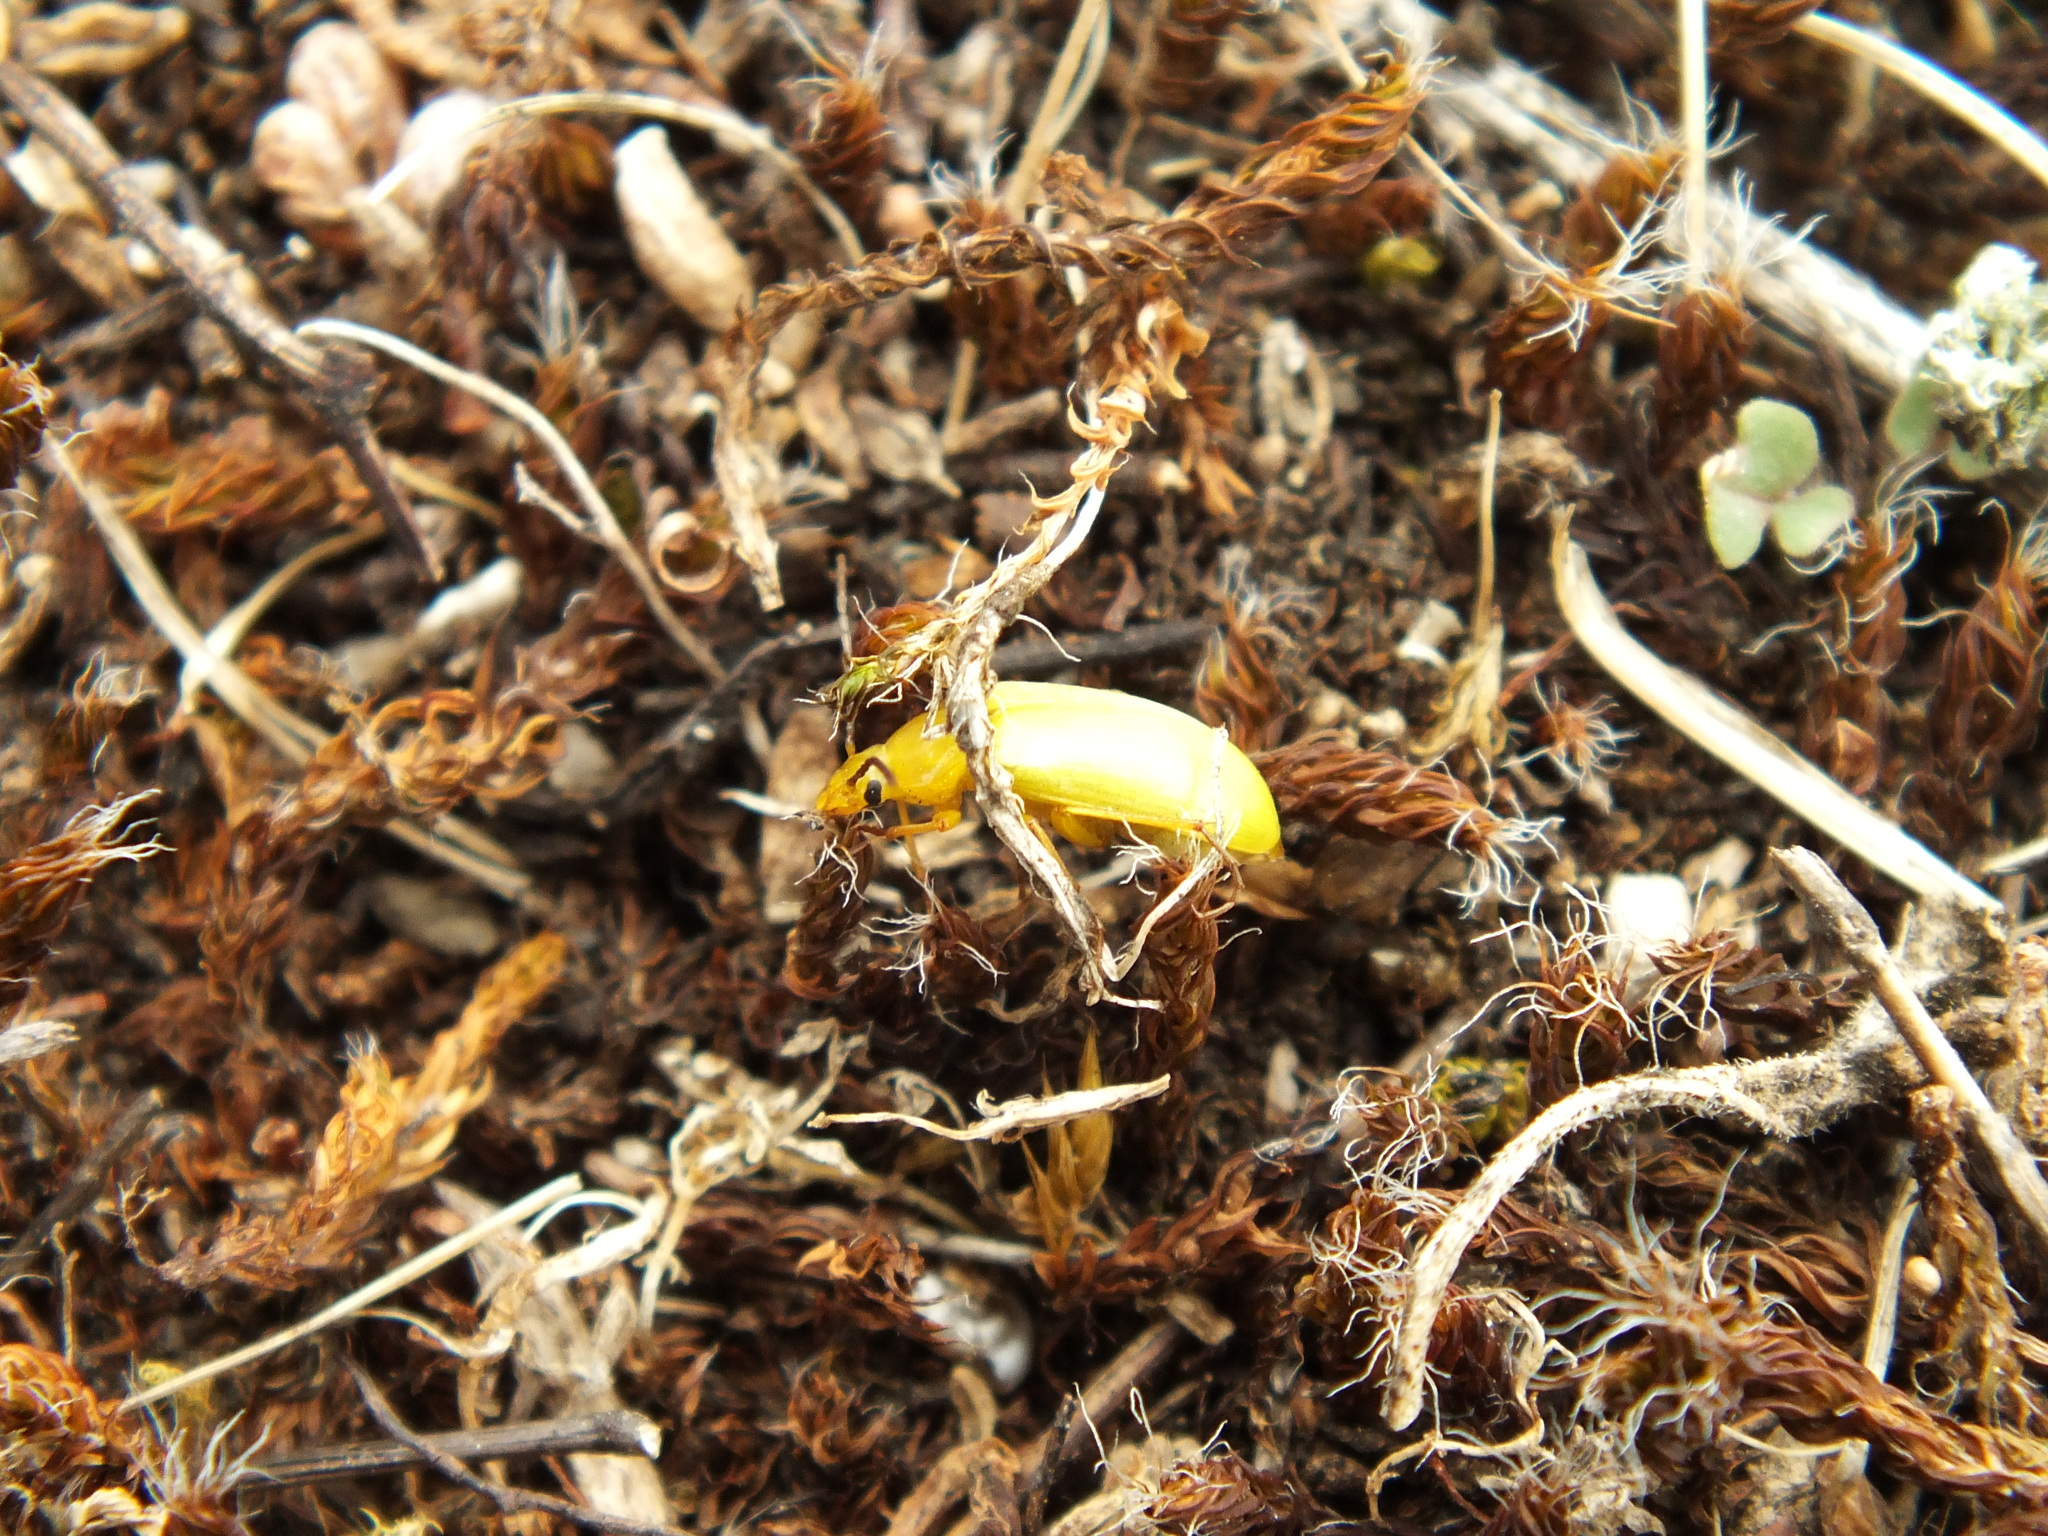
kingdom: Animalia
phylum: Arthropoda
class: Insecta
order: Coleoptera
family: Tenebrionidae
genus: Cteniopus
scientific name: Cteniopus sulphureus
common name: Sulphur beetle
